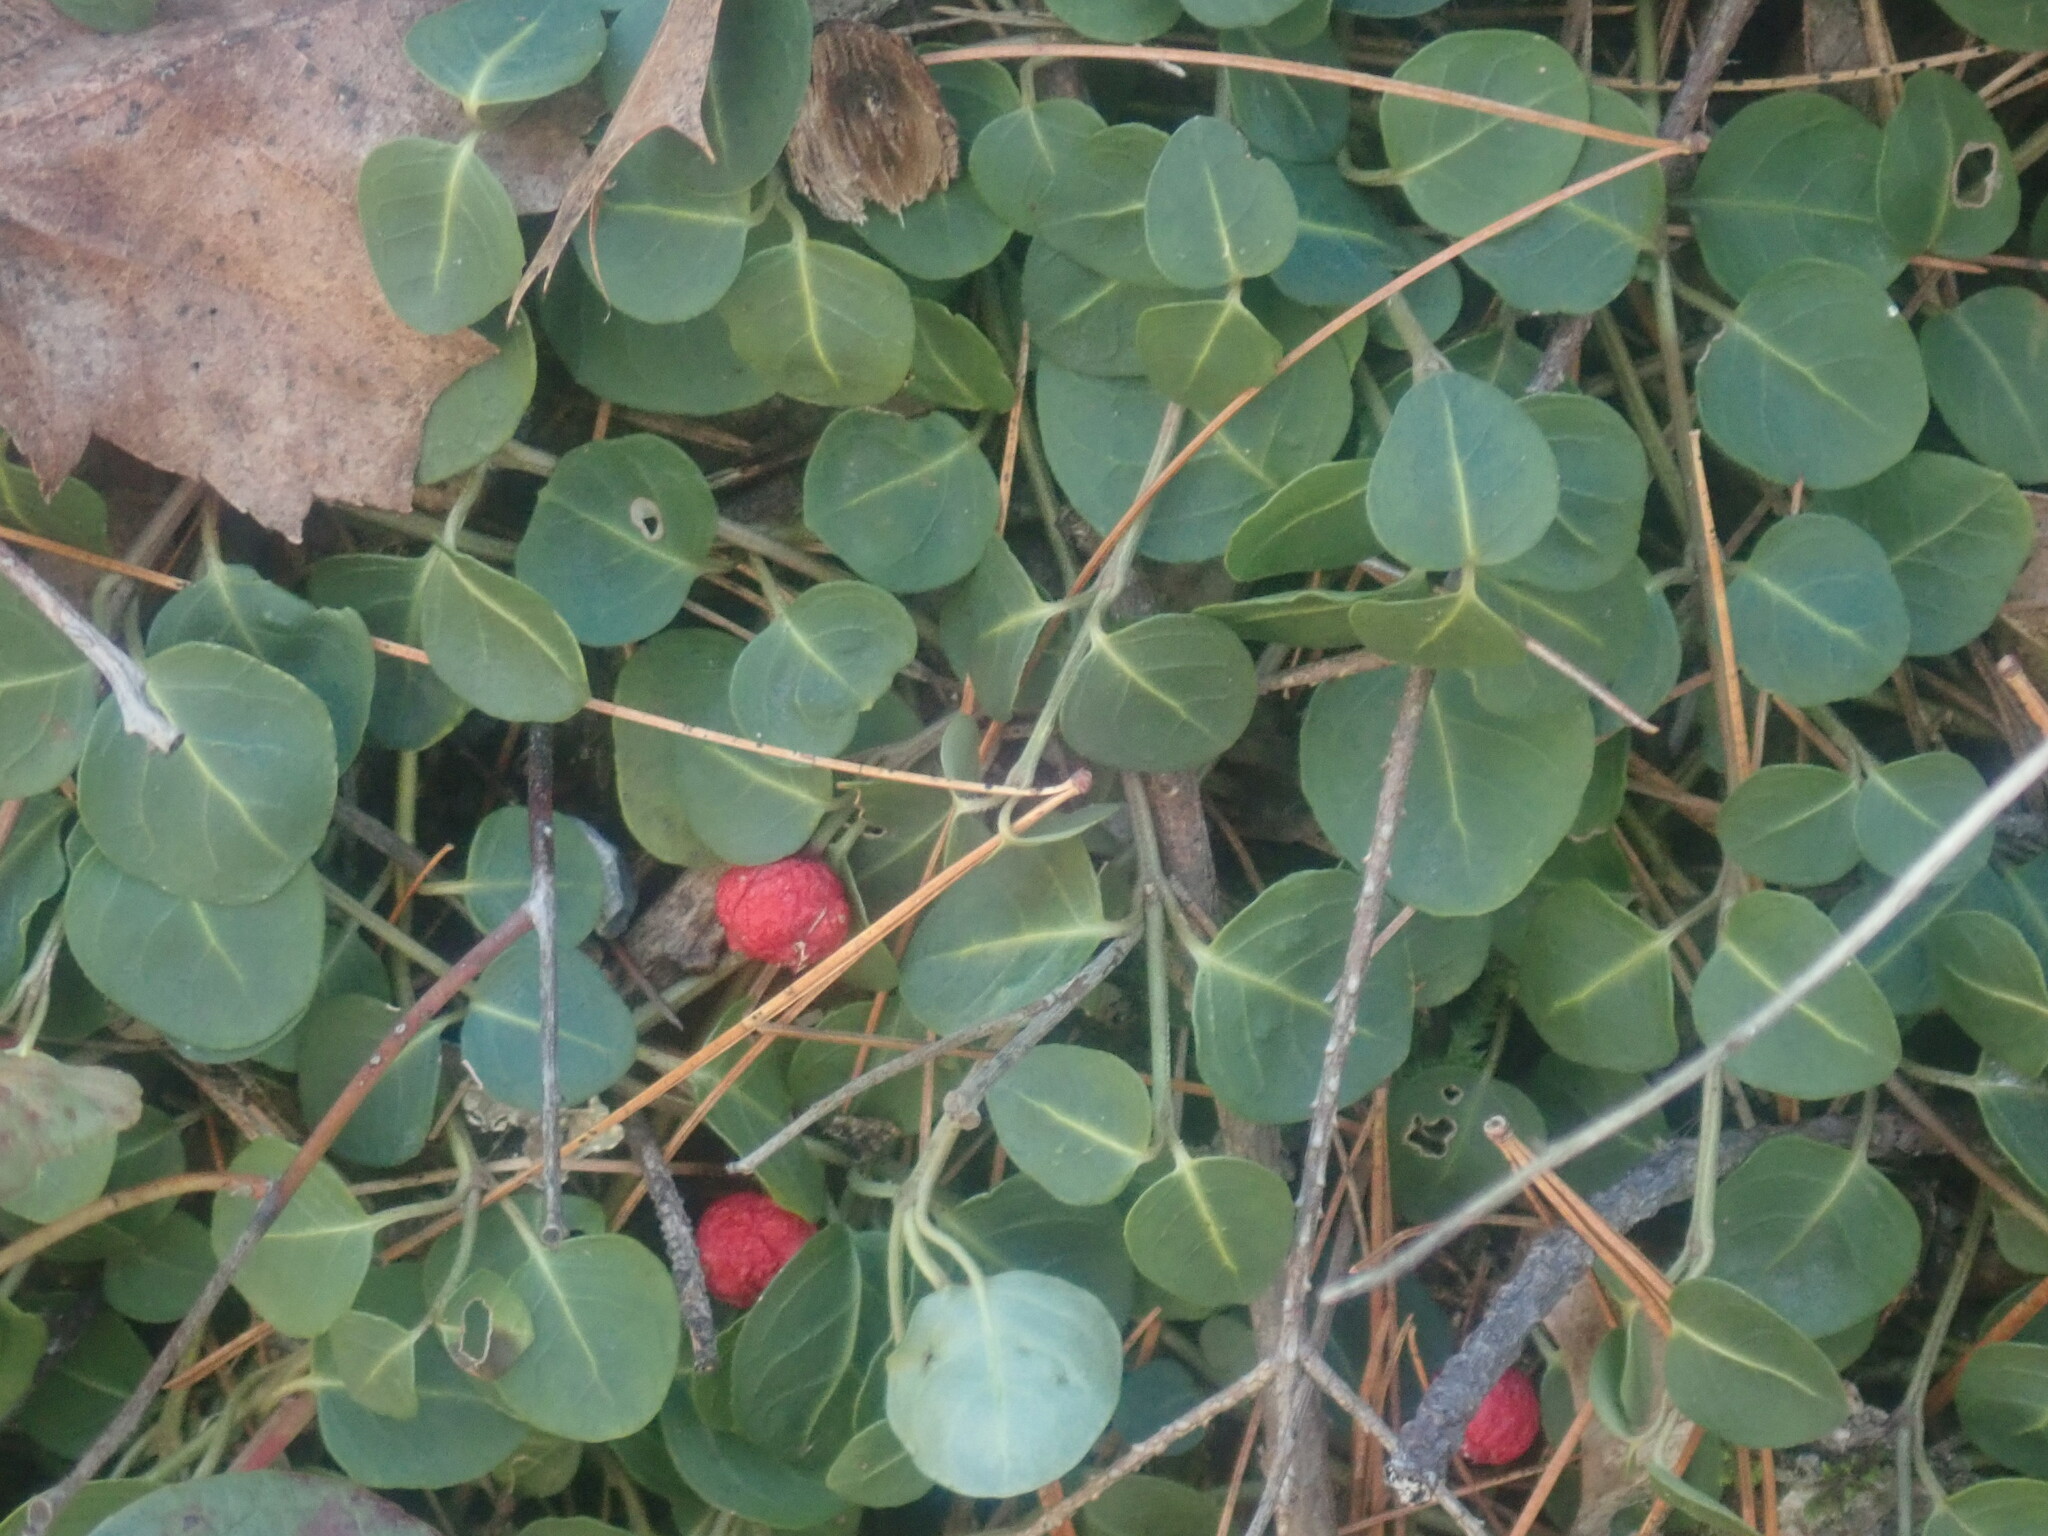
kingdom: Plantae
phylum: Tracheophyta
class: Magnoliopsida
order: Gentianales
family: Rubiaceae
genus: Mitchella
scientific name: Mitchella repens
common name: Partridge-berry
